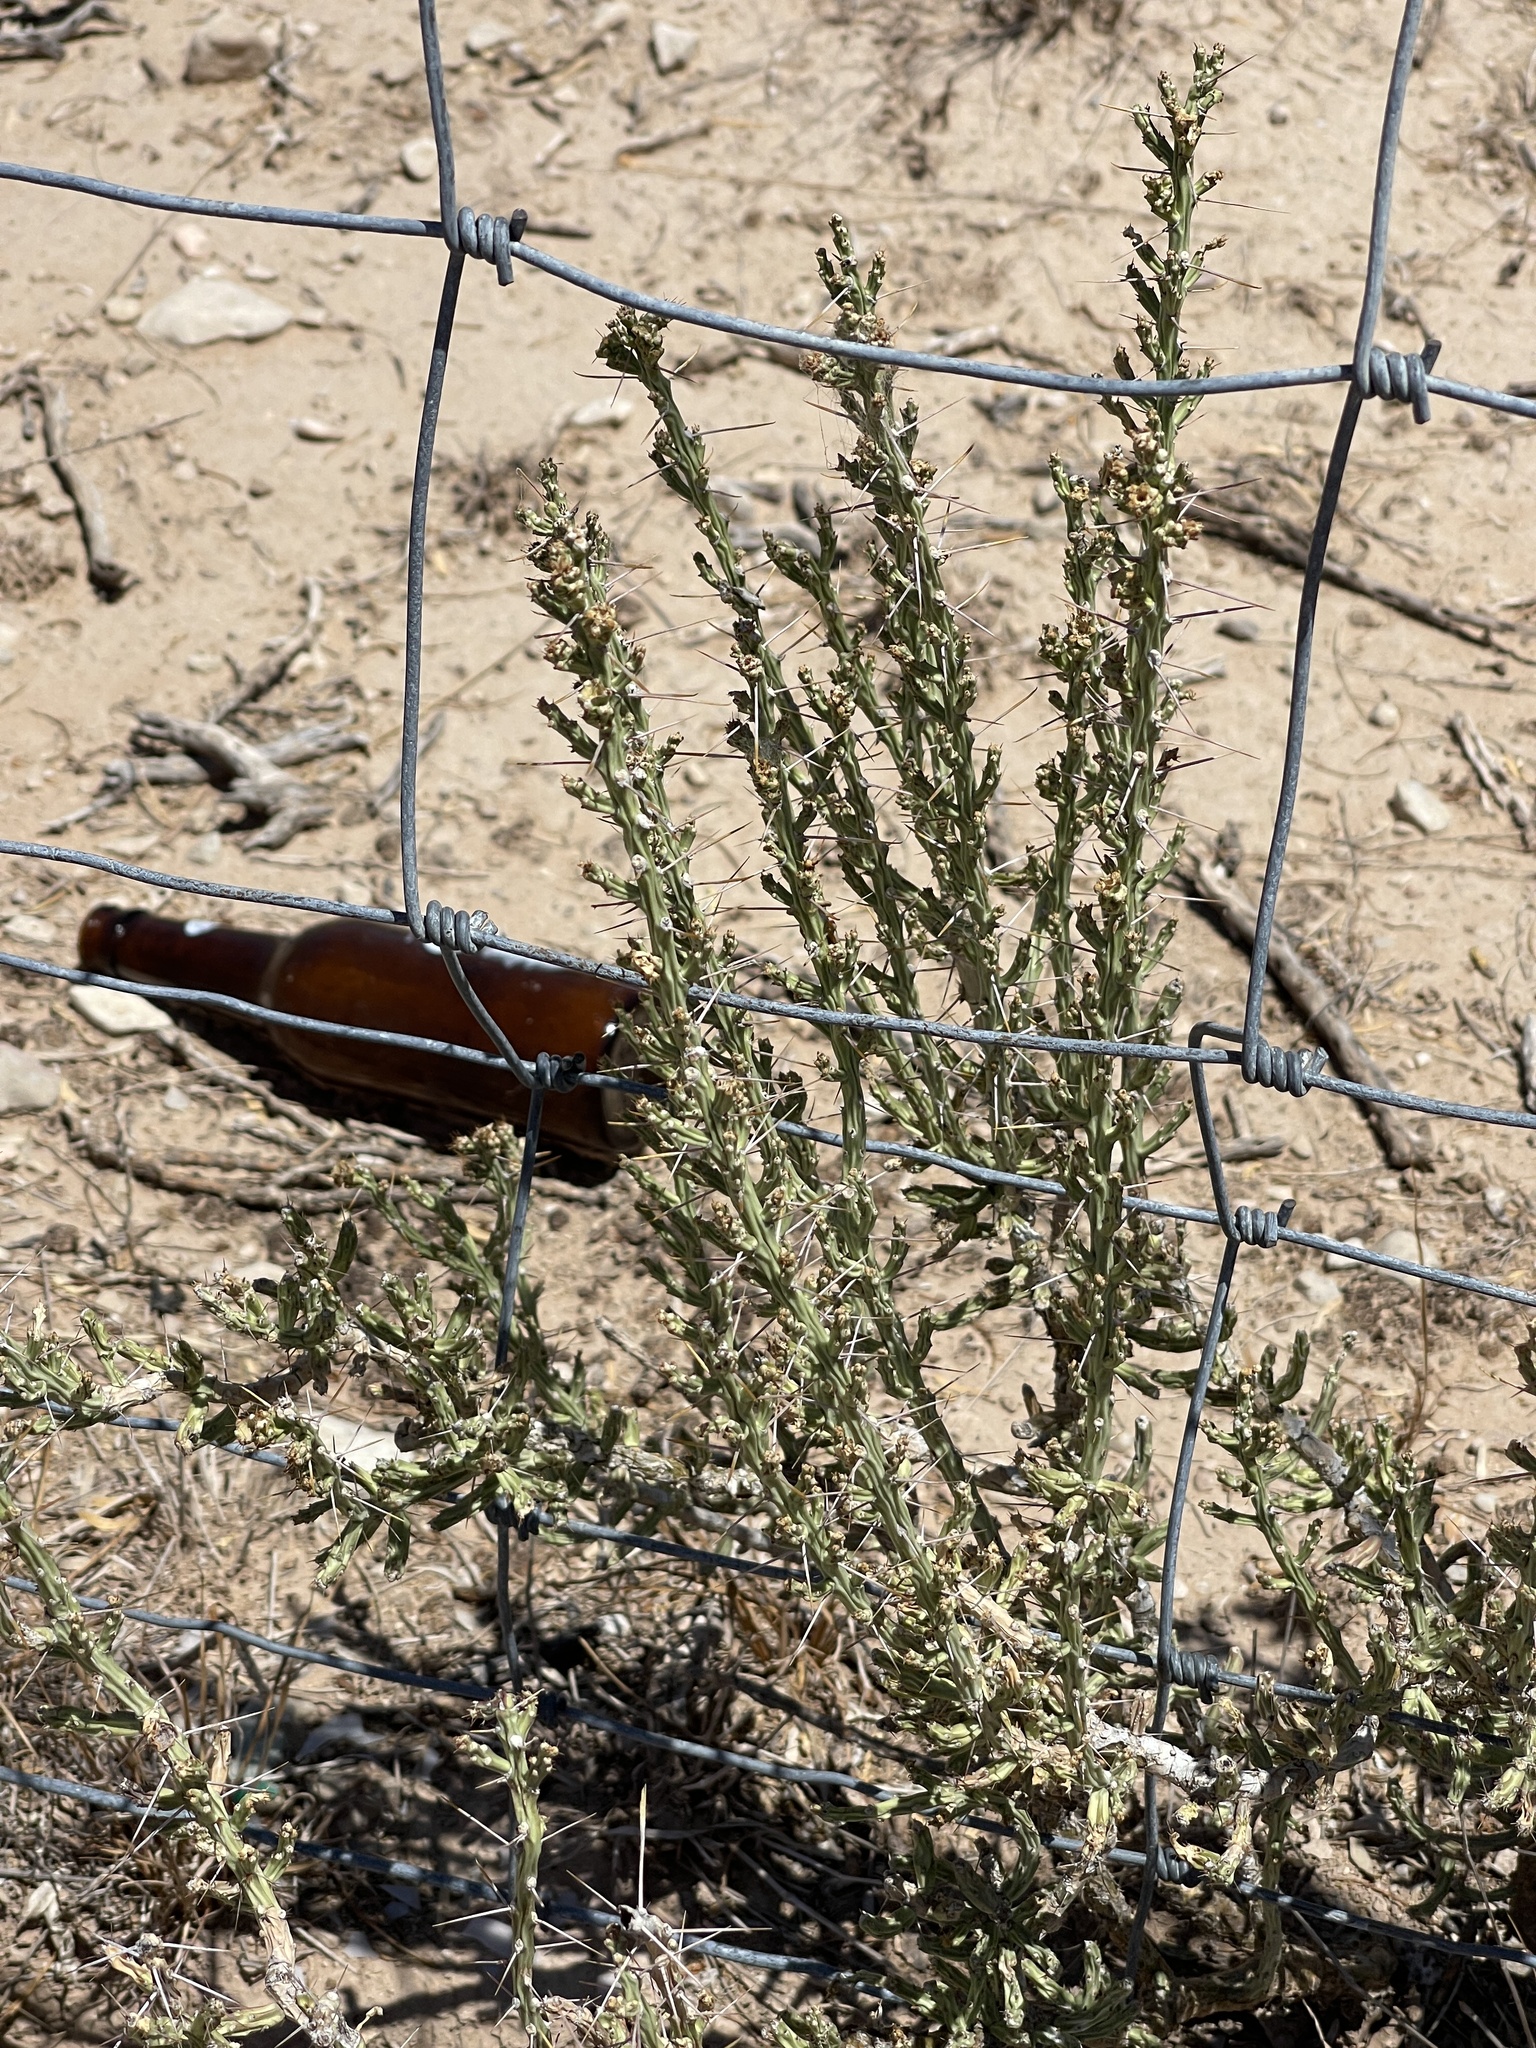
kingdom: Plantae
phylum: Tracheophyta
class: Magnoliopsida
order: Caryophyllales
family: Cactaceae
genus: Cylindropuntia
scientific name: Cylindropuntia leptocaulis
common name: Christmas cactus
